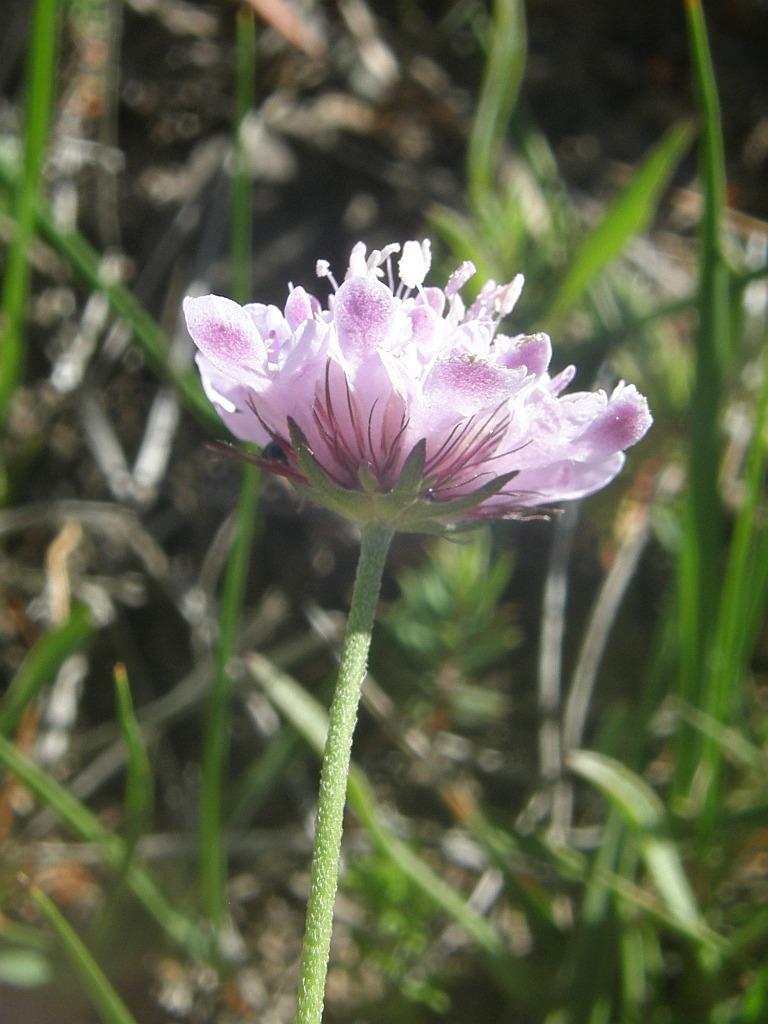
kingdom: Plantae
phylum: Tracheophyta
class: Magnoliopsida
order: Dipsacales
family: Caprifoliaceae
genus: Scabiosa
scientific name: Scabiosa columbaria
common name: Small scabious
